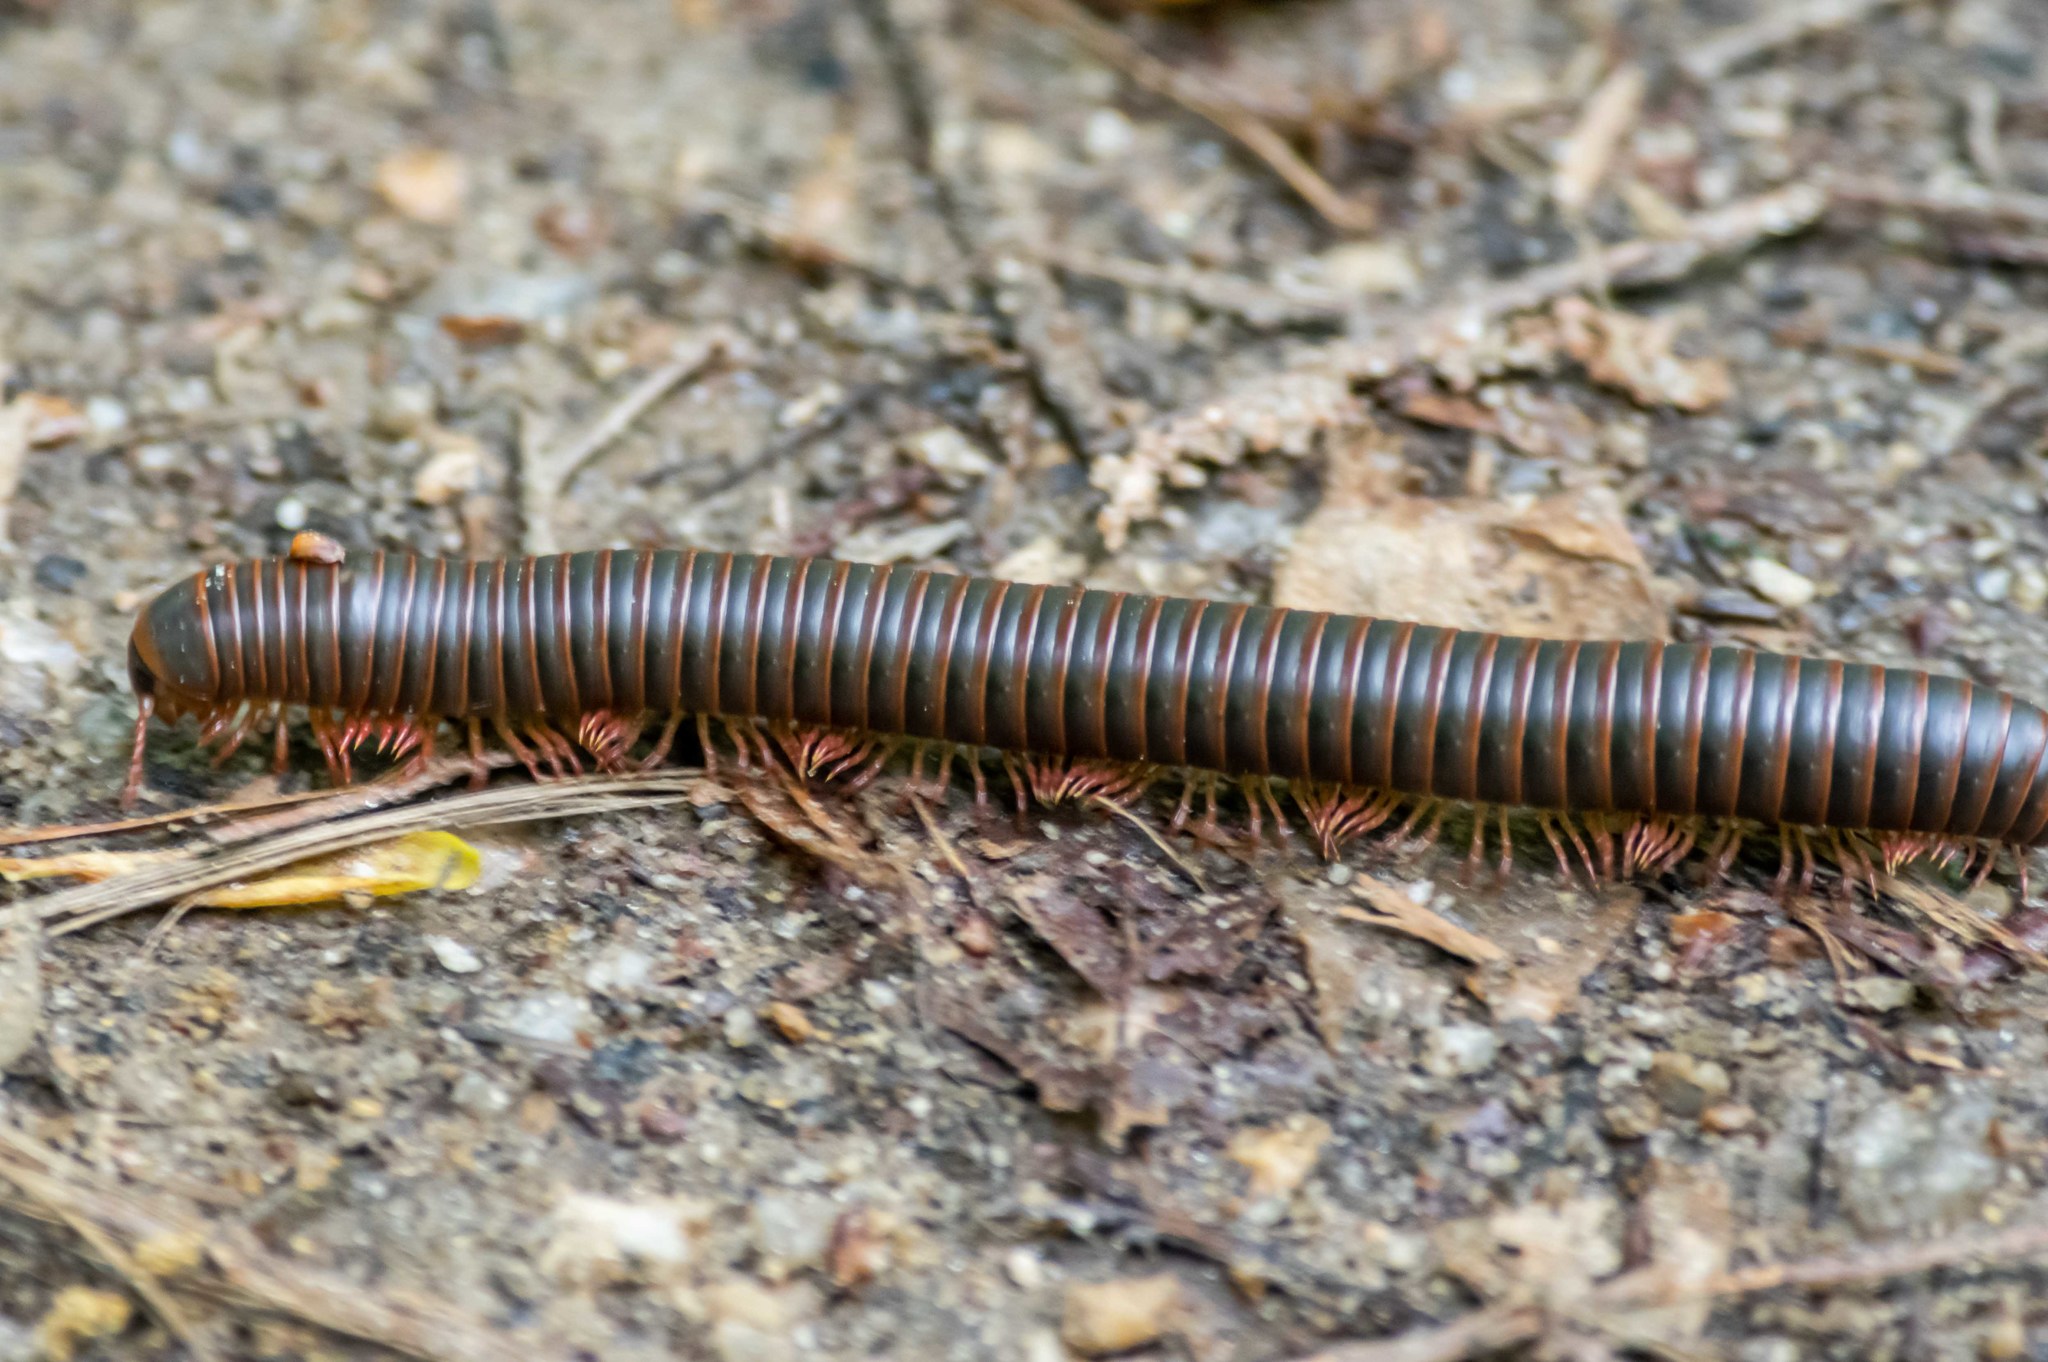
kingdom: Animalia
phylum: Arthropoda
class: Diplopoda
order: Spirobolida
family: Spirobolidae
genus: Narceus
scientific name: Narceus
